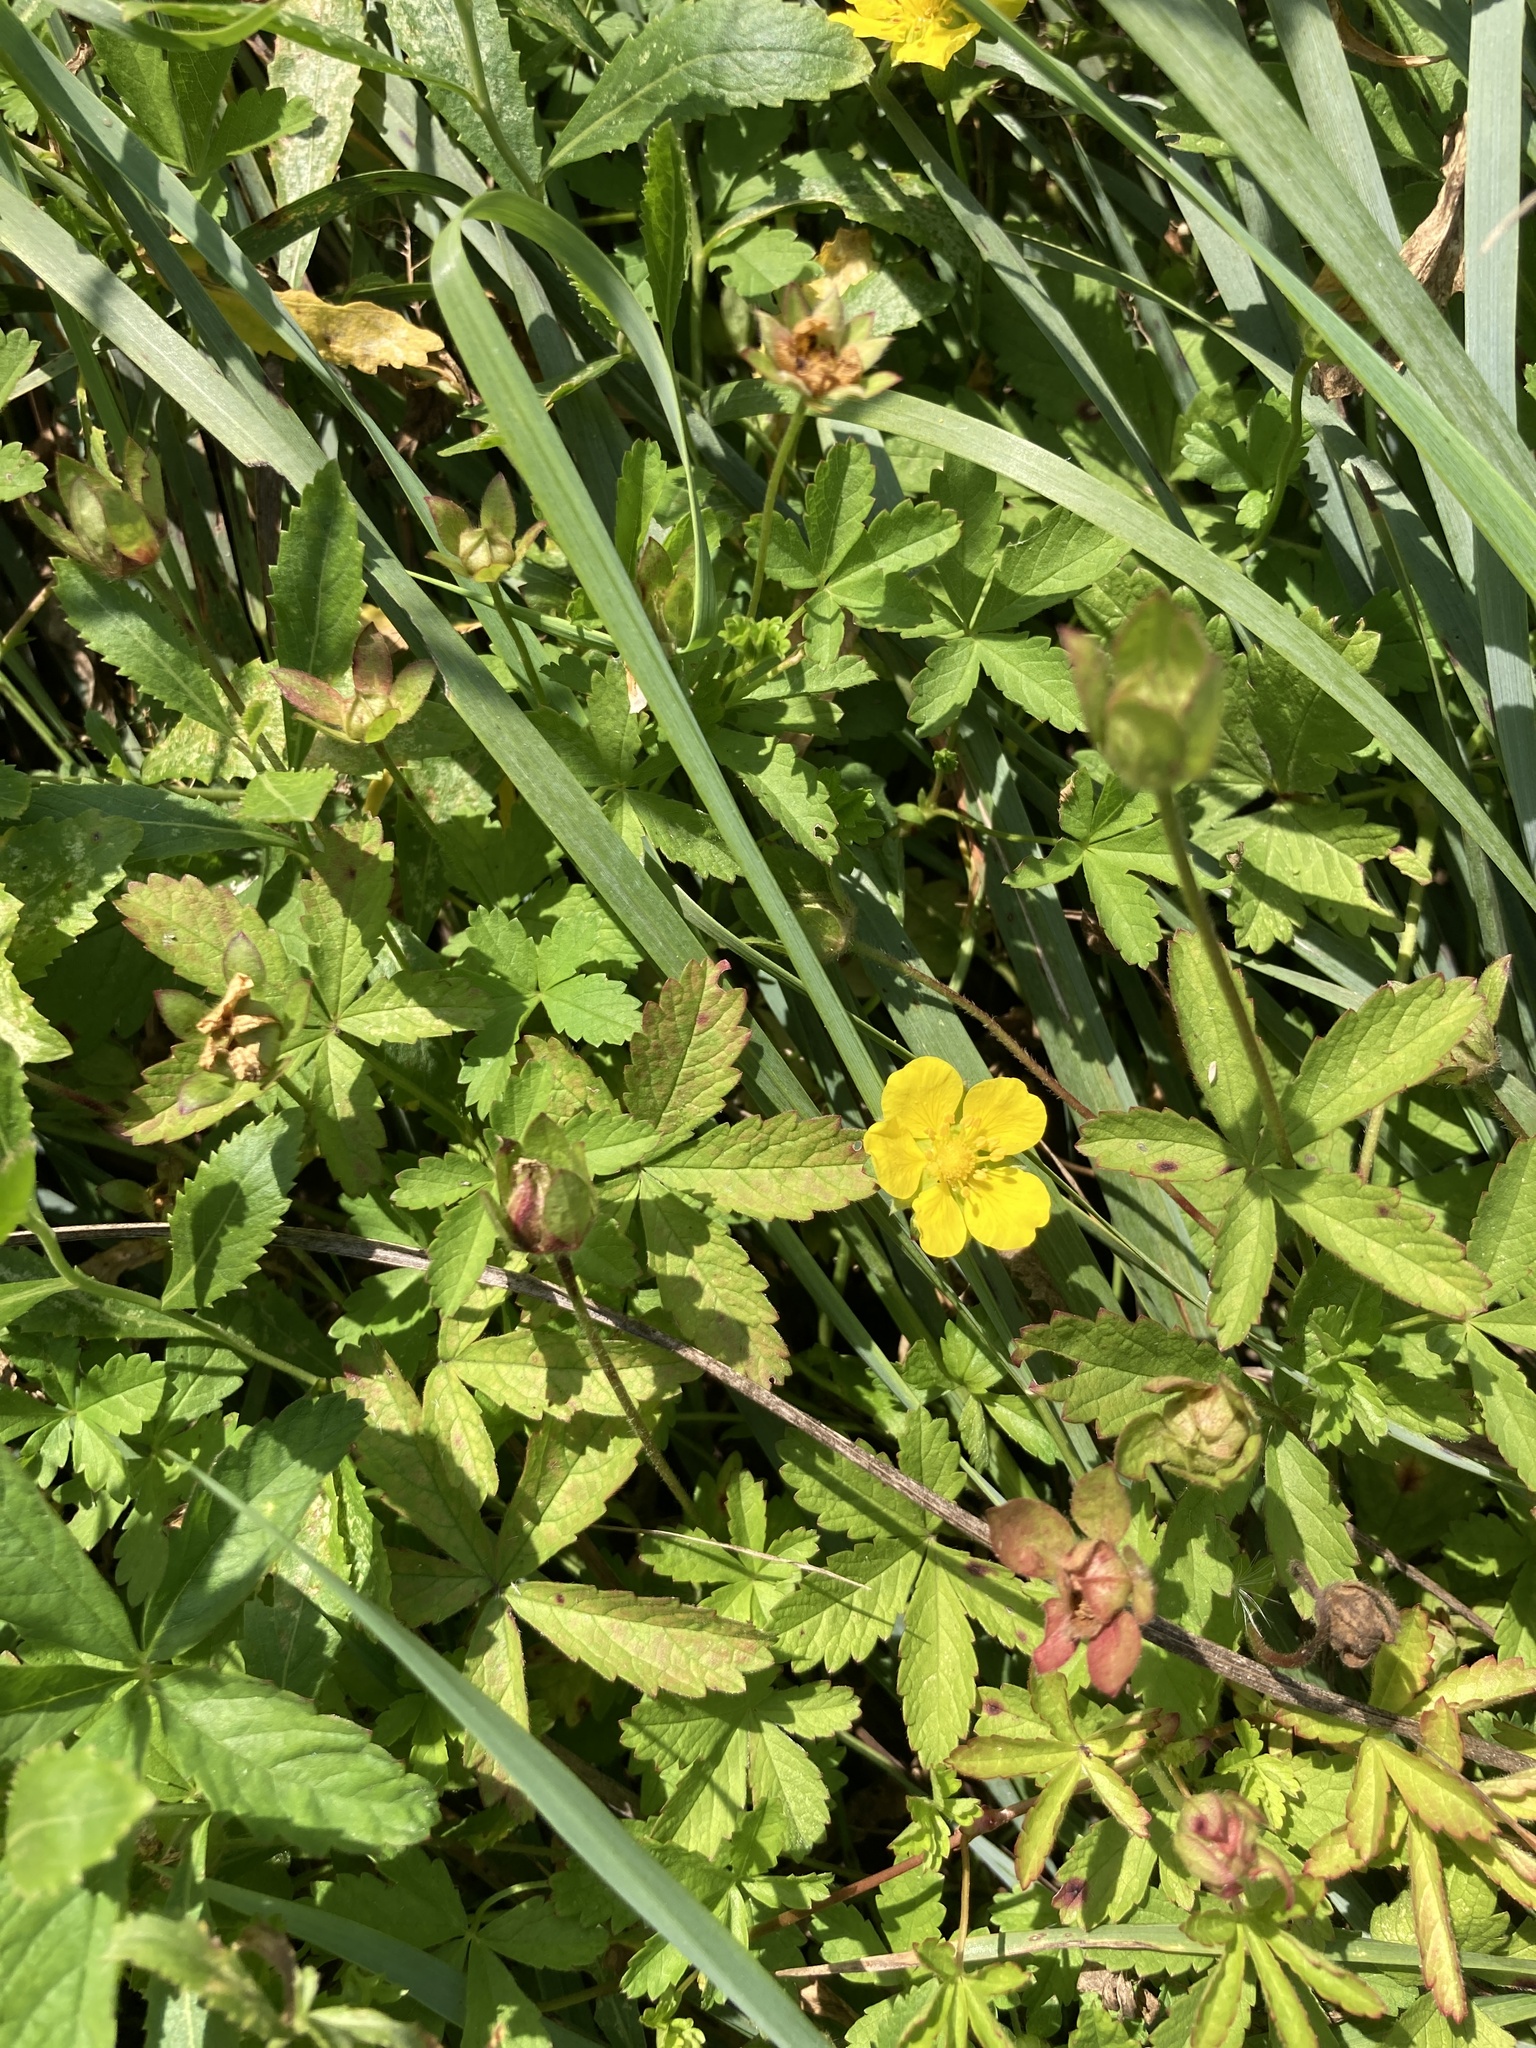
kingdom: Plantae
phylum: Tracheophyta
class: Magnoliopsida
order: Rosales
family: Rosaceae
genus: Potentilla
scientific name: Potentilla reptans
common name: Creeping cinquefoil
